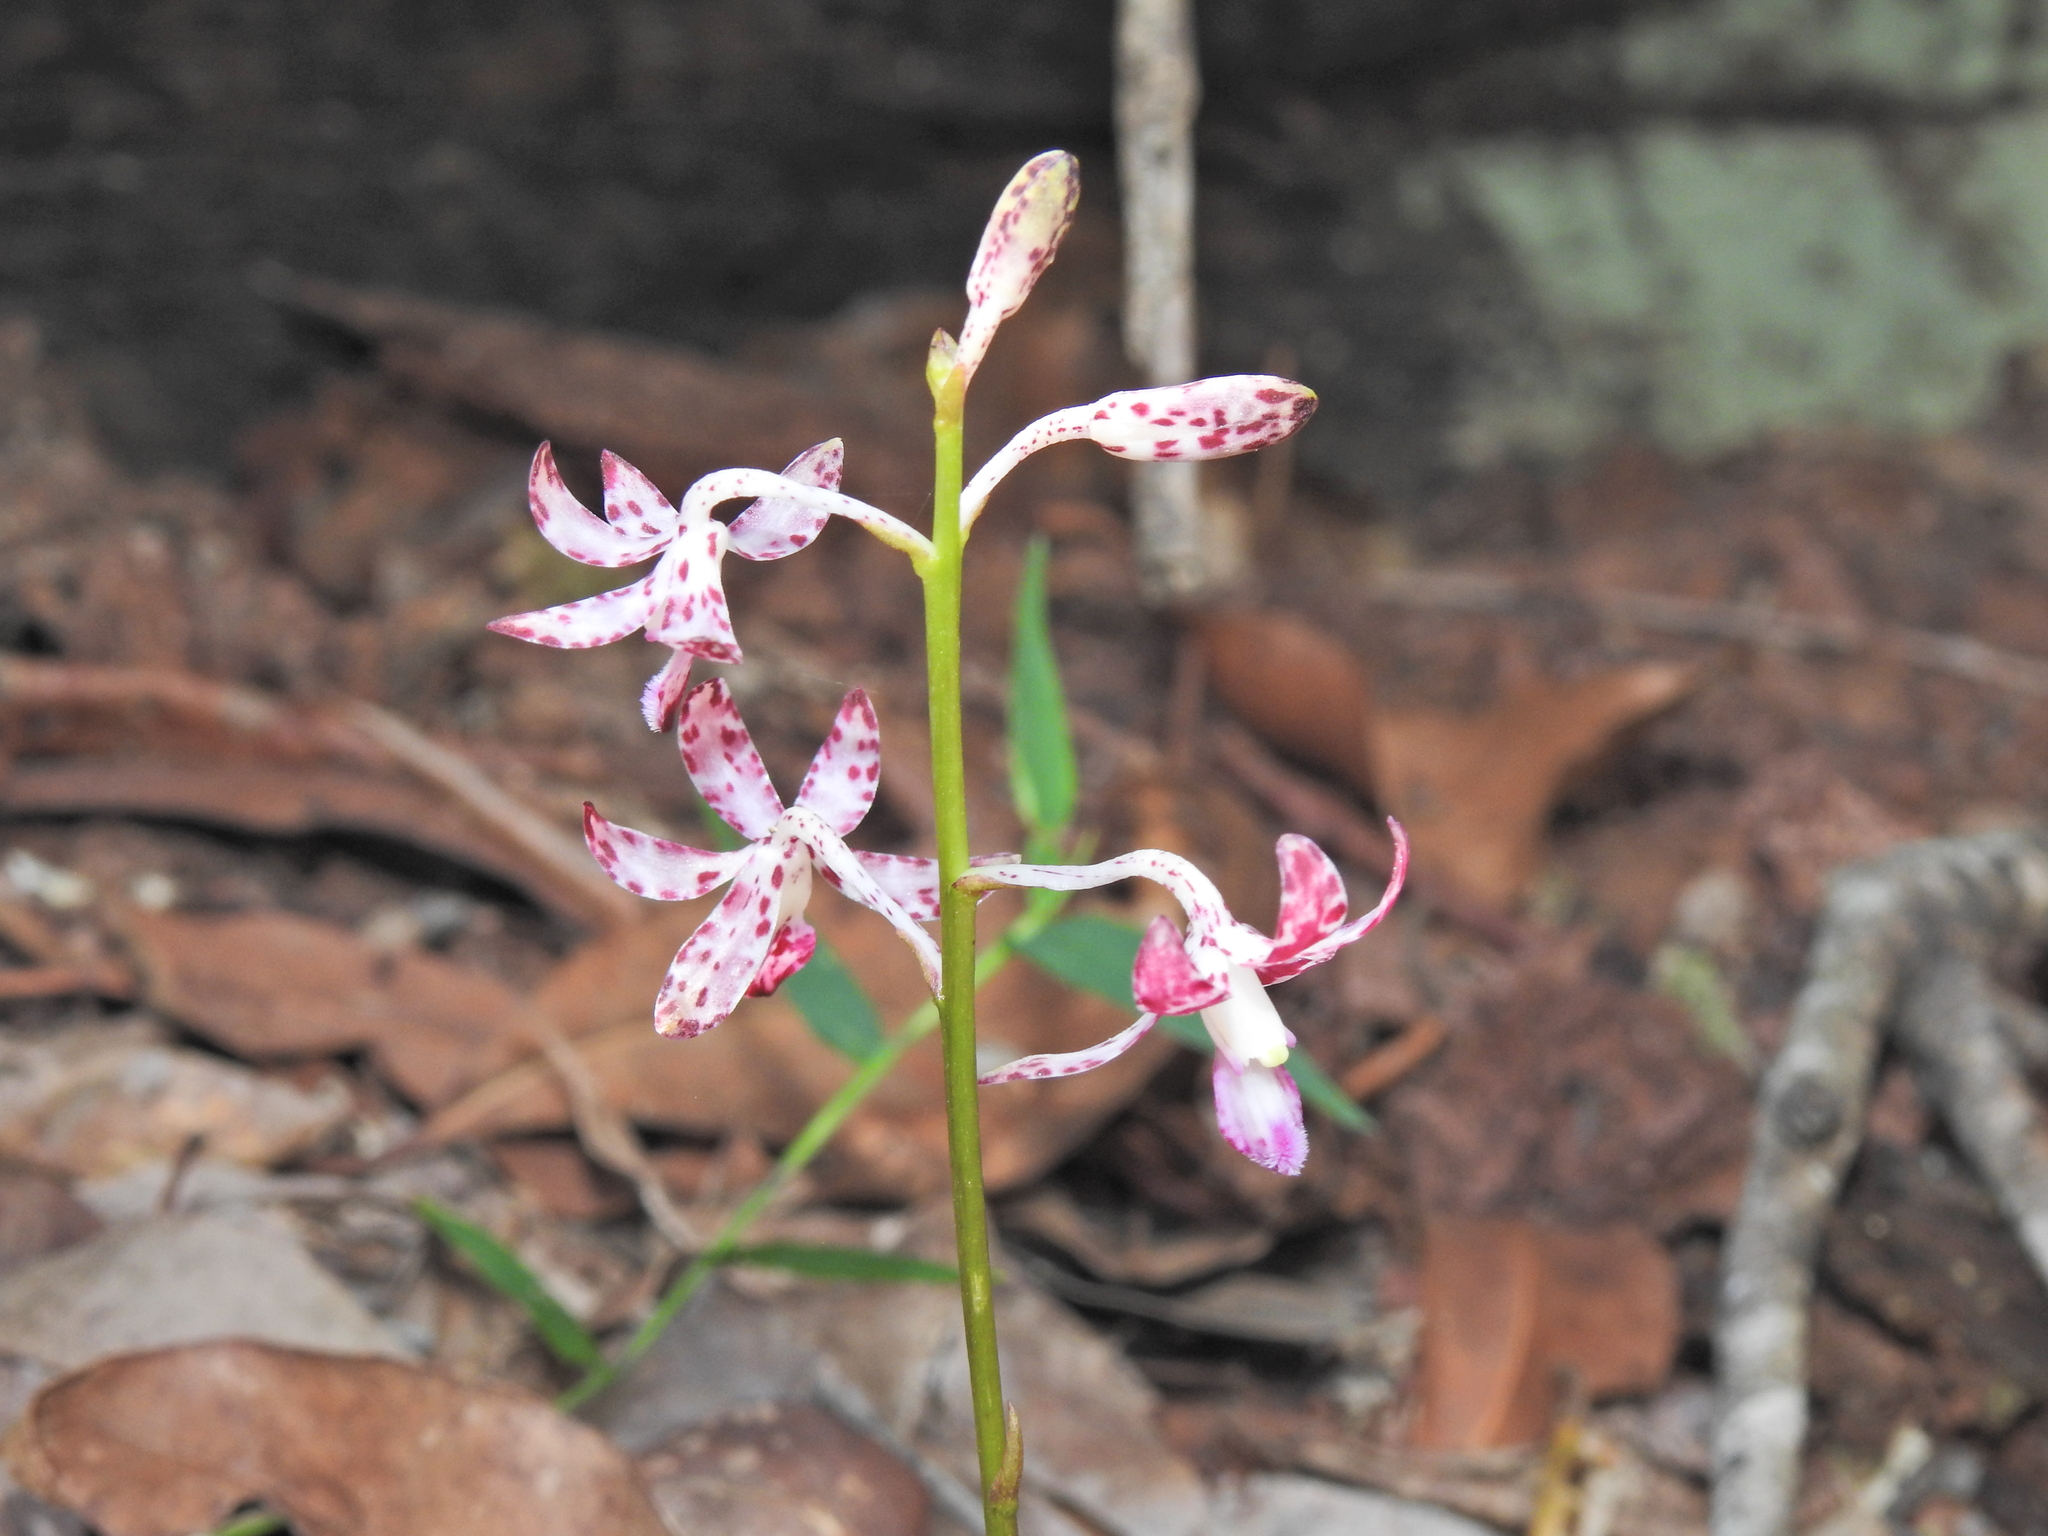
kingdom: Plantae
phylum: Tracheophyta
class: Liliopsida
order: Asparagales
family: Orchidaceae
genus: Dipodium
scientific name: Dipodium variegatum
